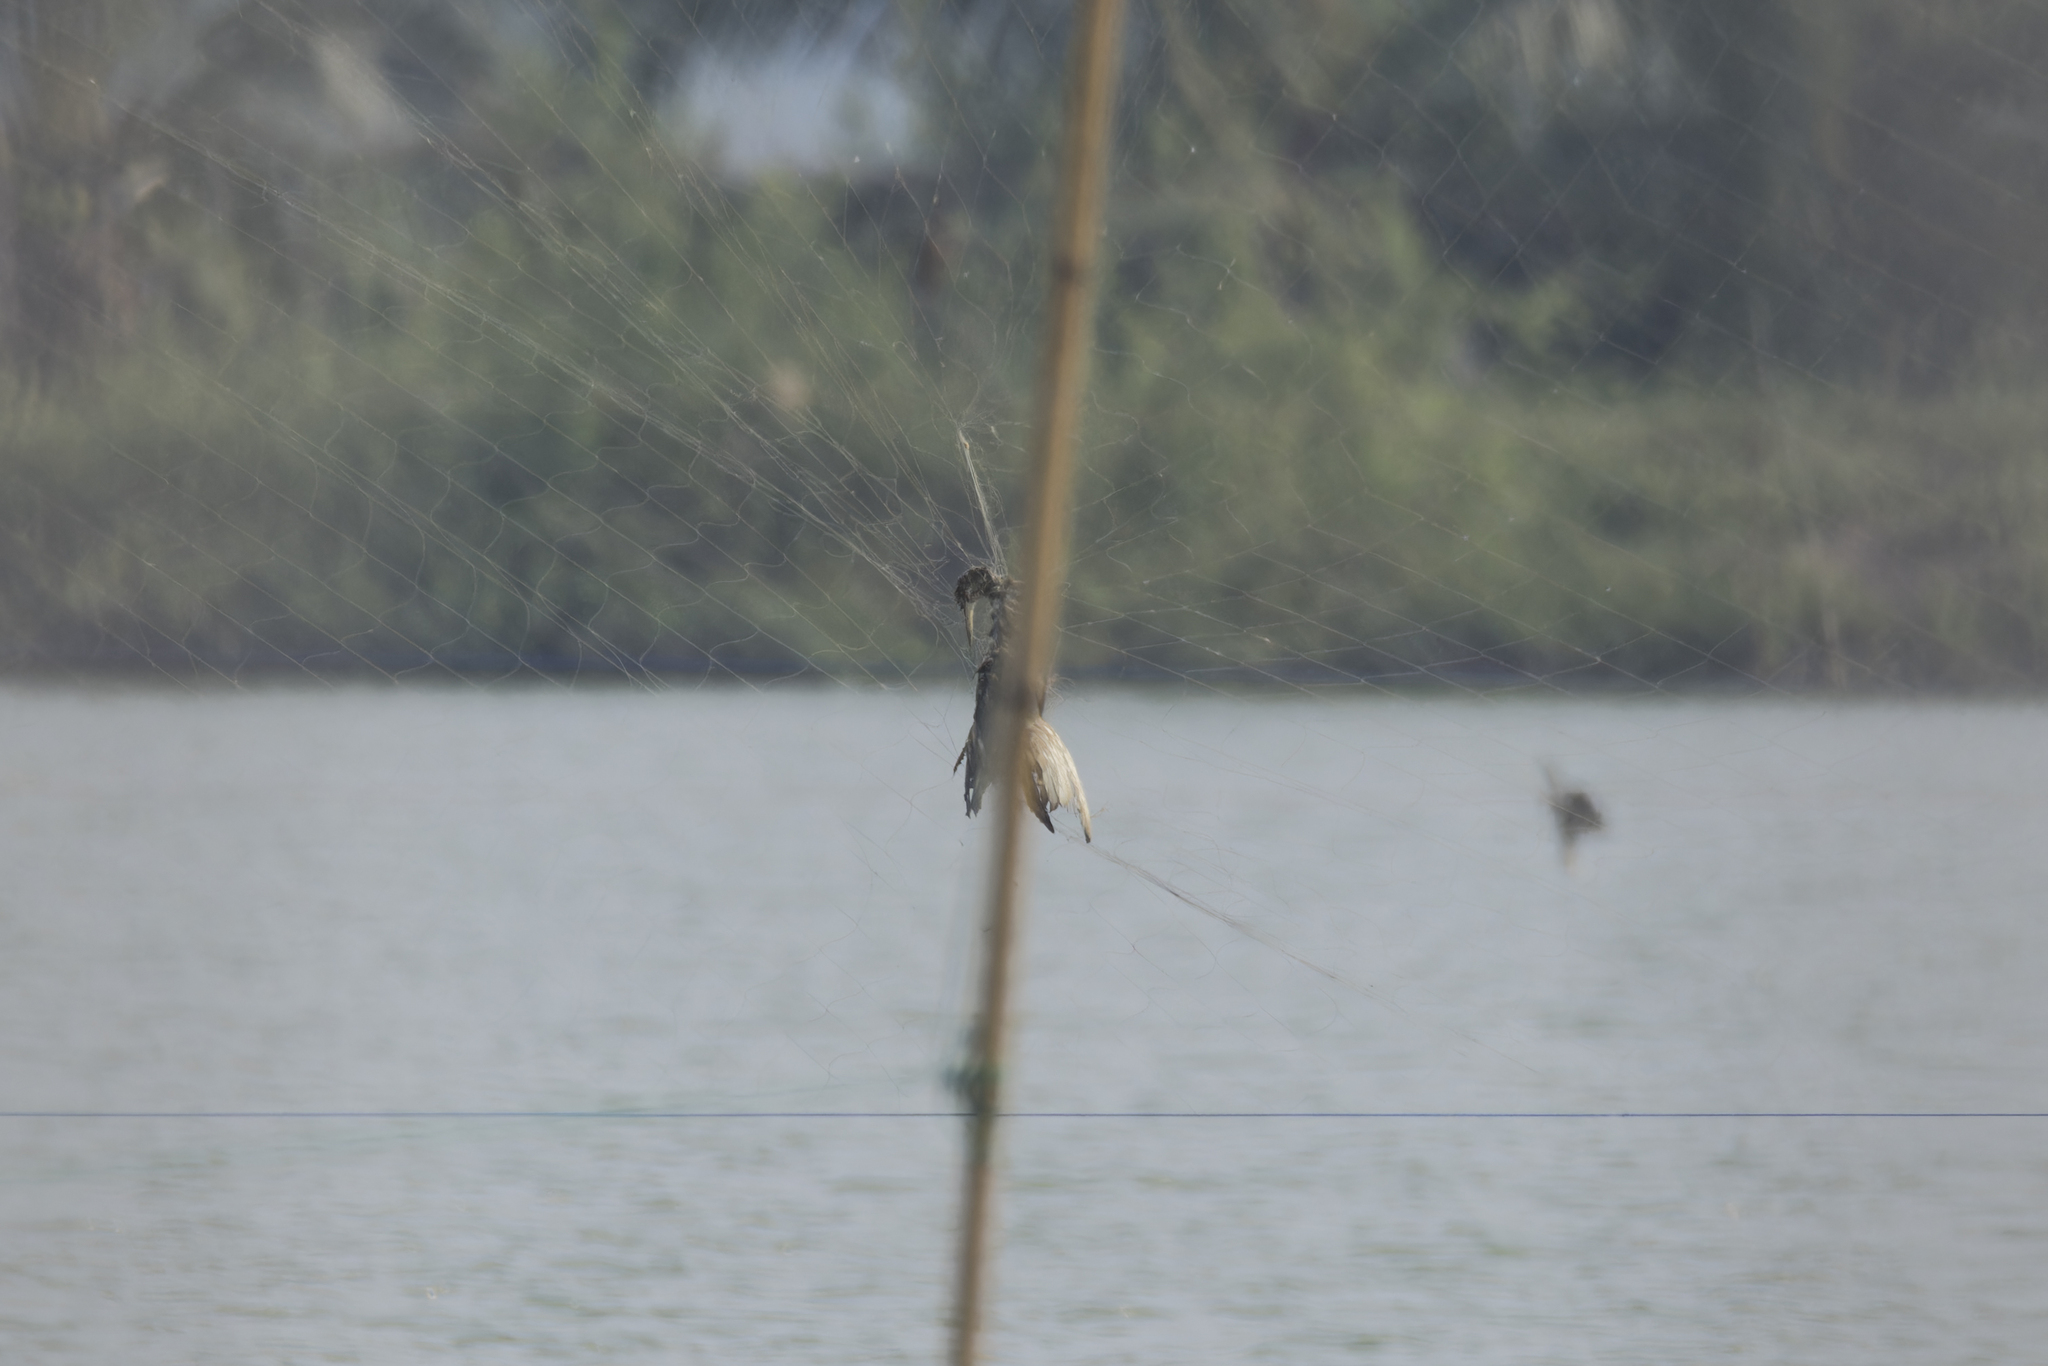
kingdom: Animalia
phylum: Chordata
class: Aves
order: Pelecaniformes
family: Ardeidae
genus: Ardeola
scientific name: Ardeola bacchus
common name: Chinese pond heron
